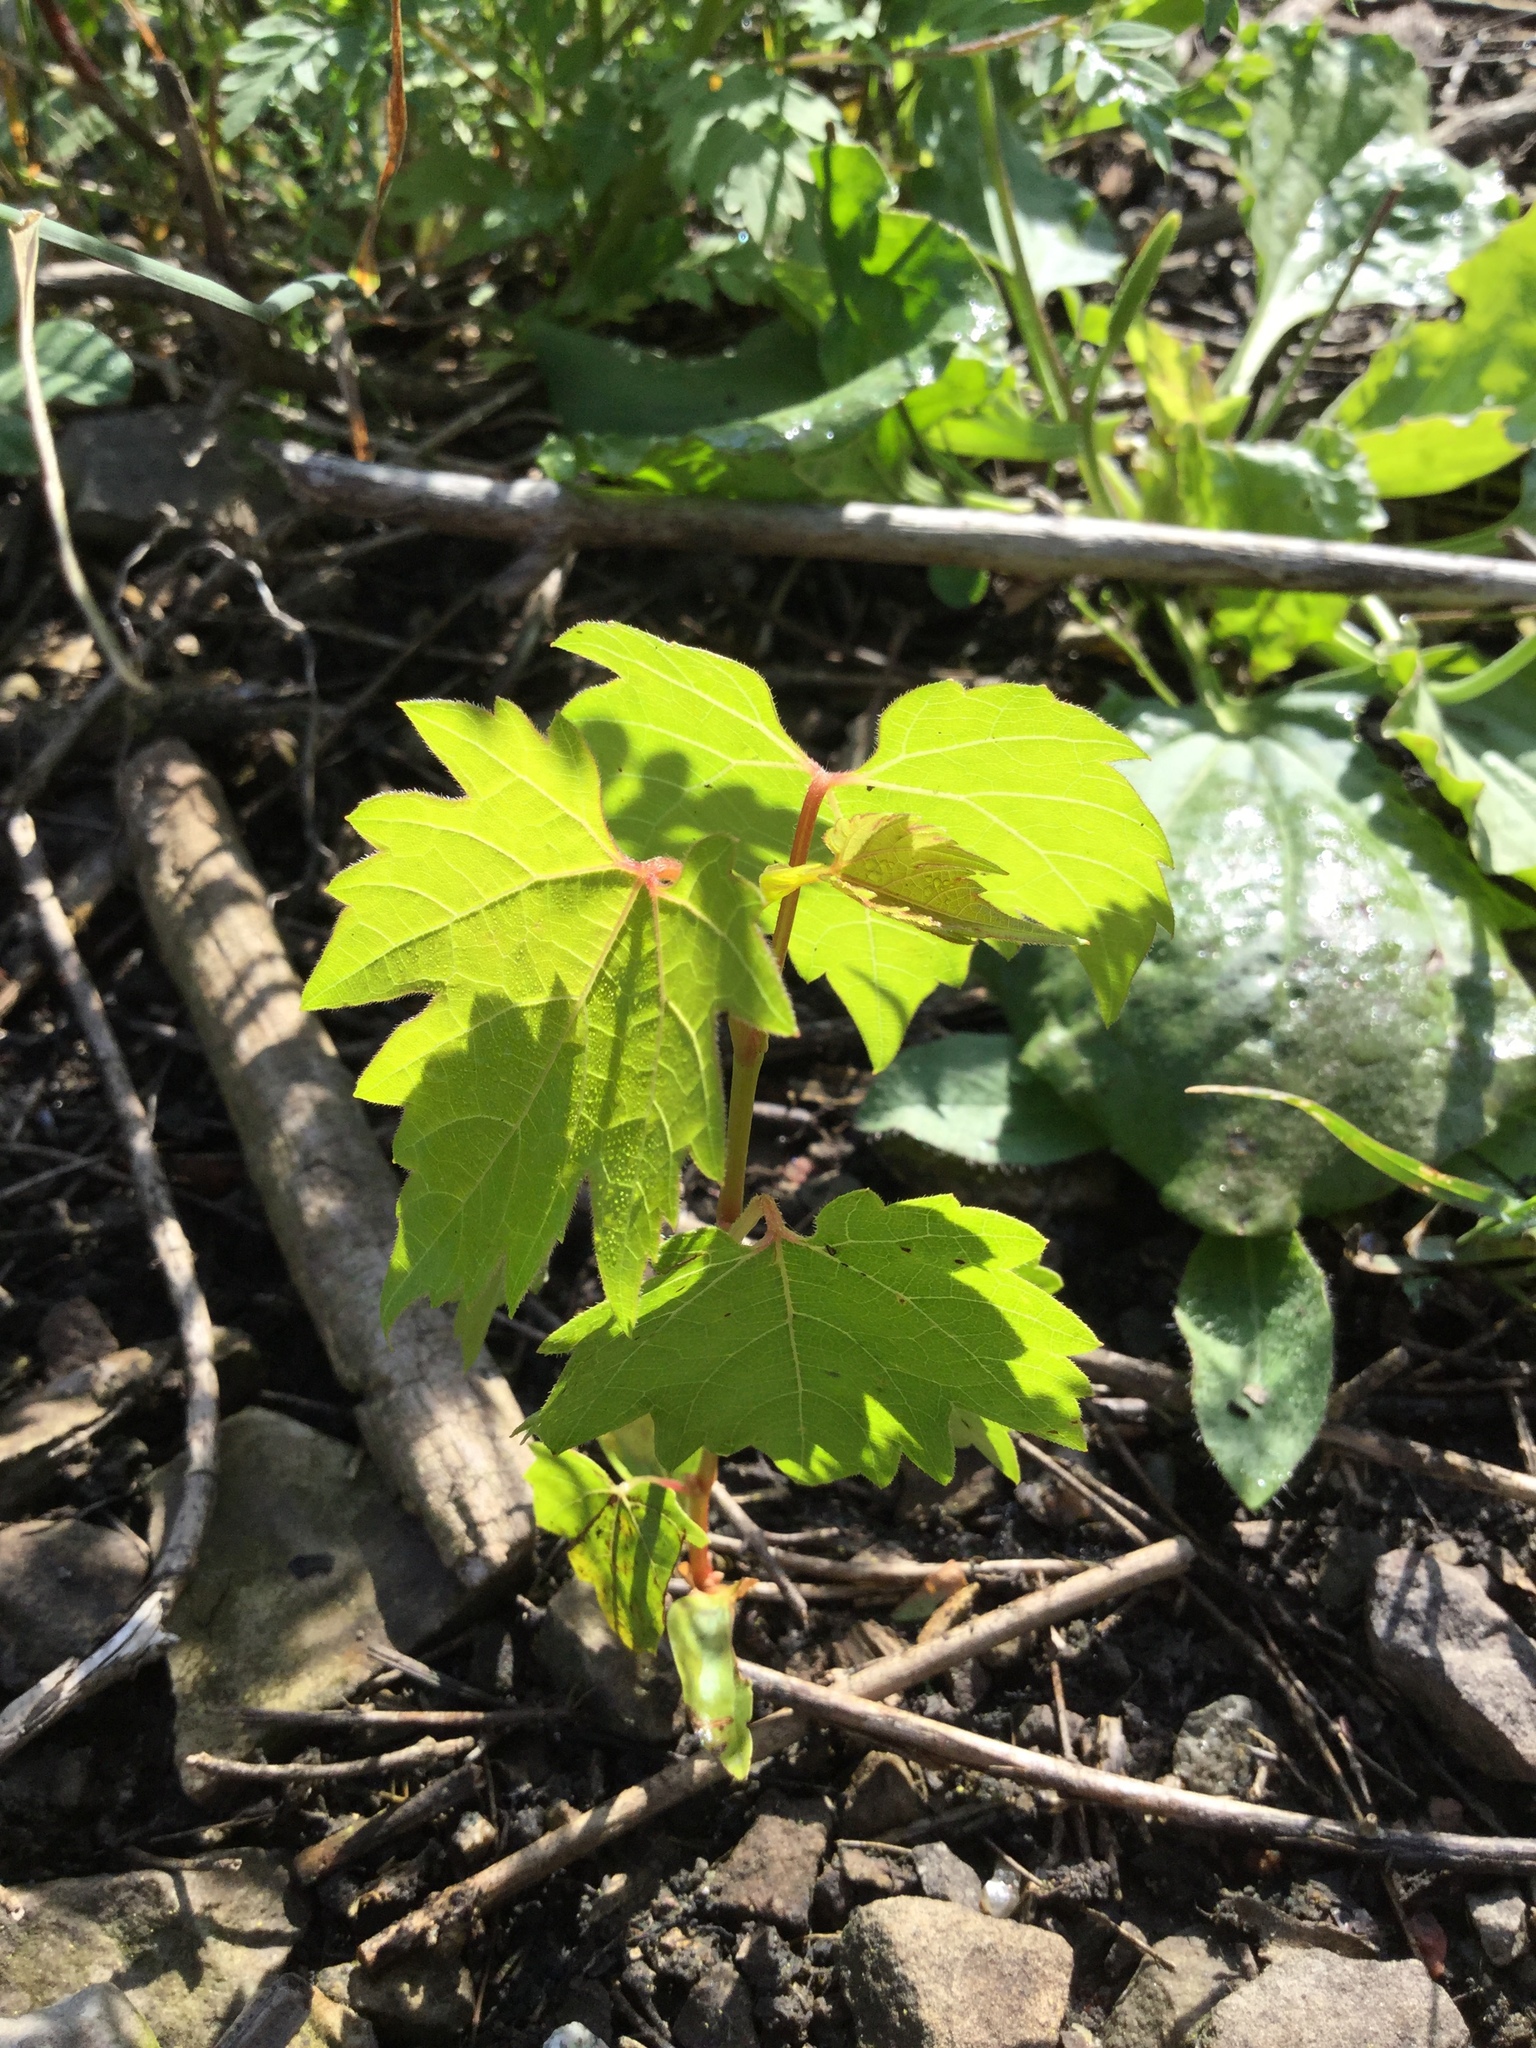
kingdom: Plantae
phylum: Tracheophyta
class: Magnoliopsida
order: Vitales
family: Vitaceae
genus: Vitis
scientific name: Vitis riparia
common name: Frost grape
